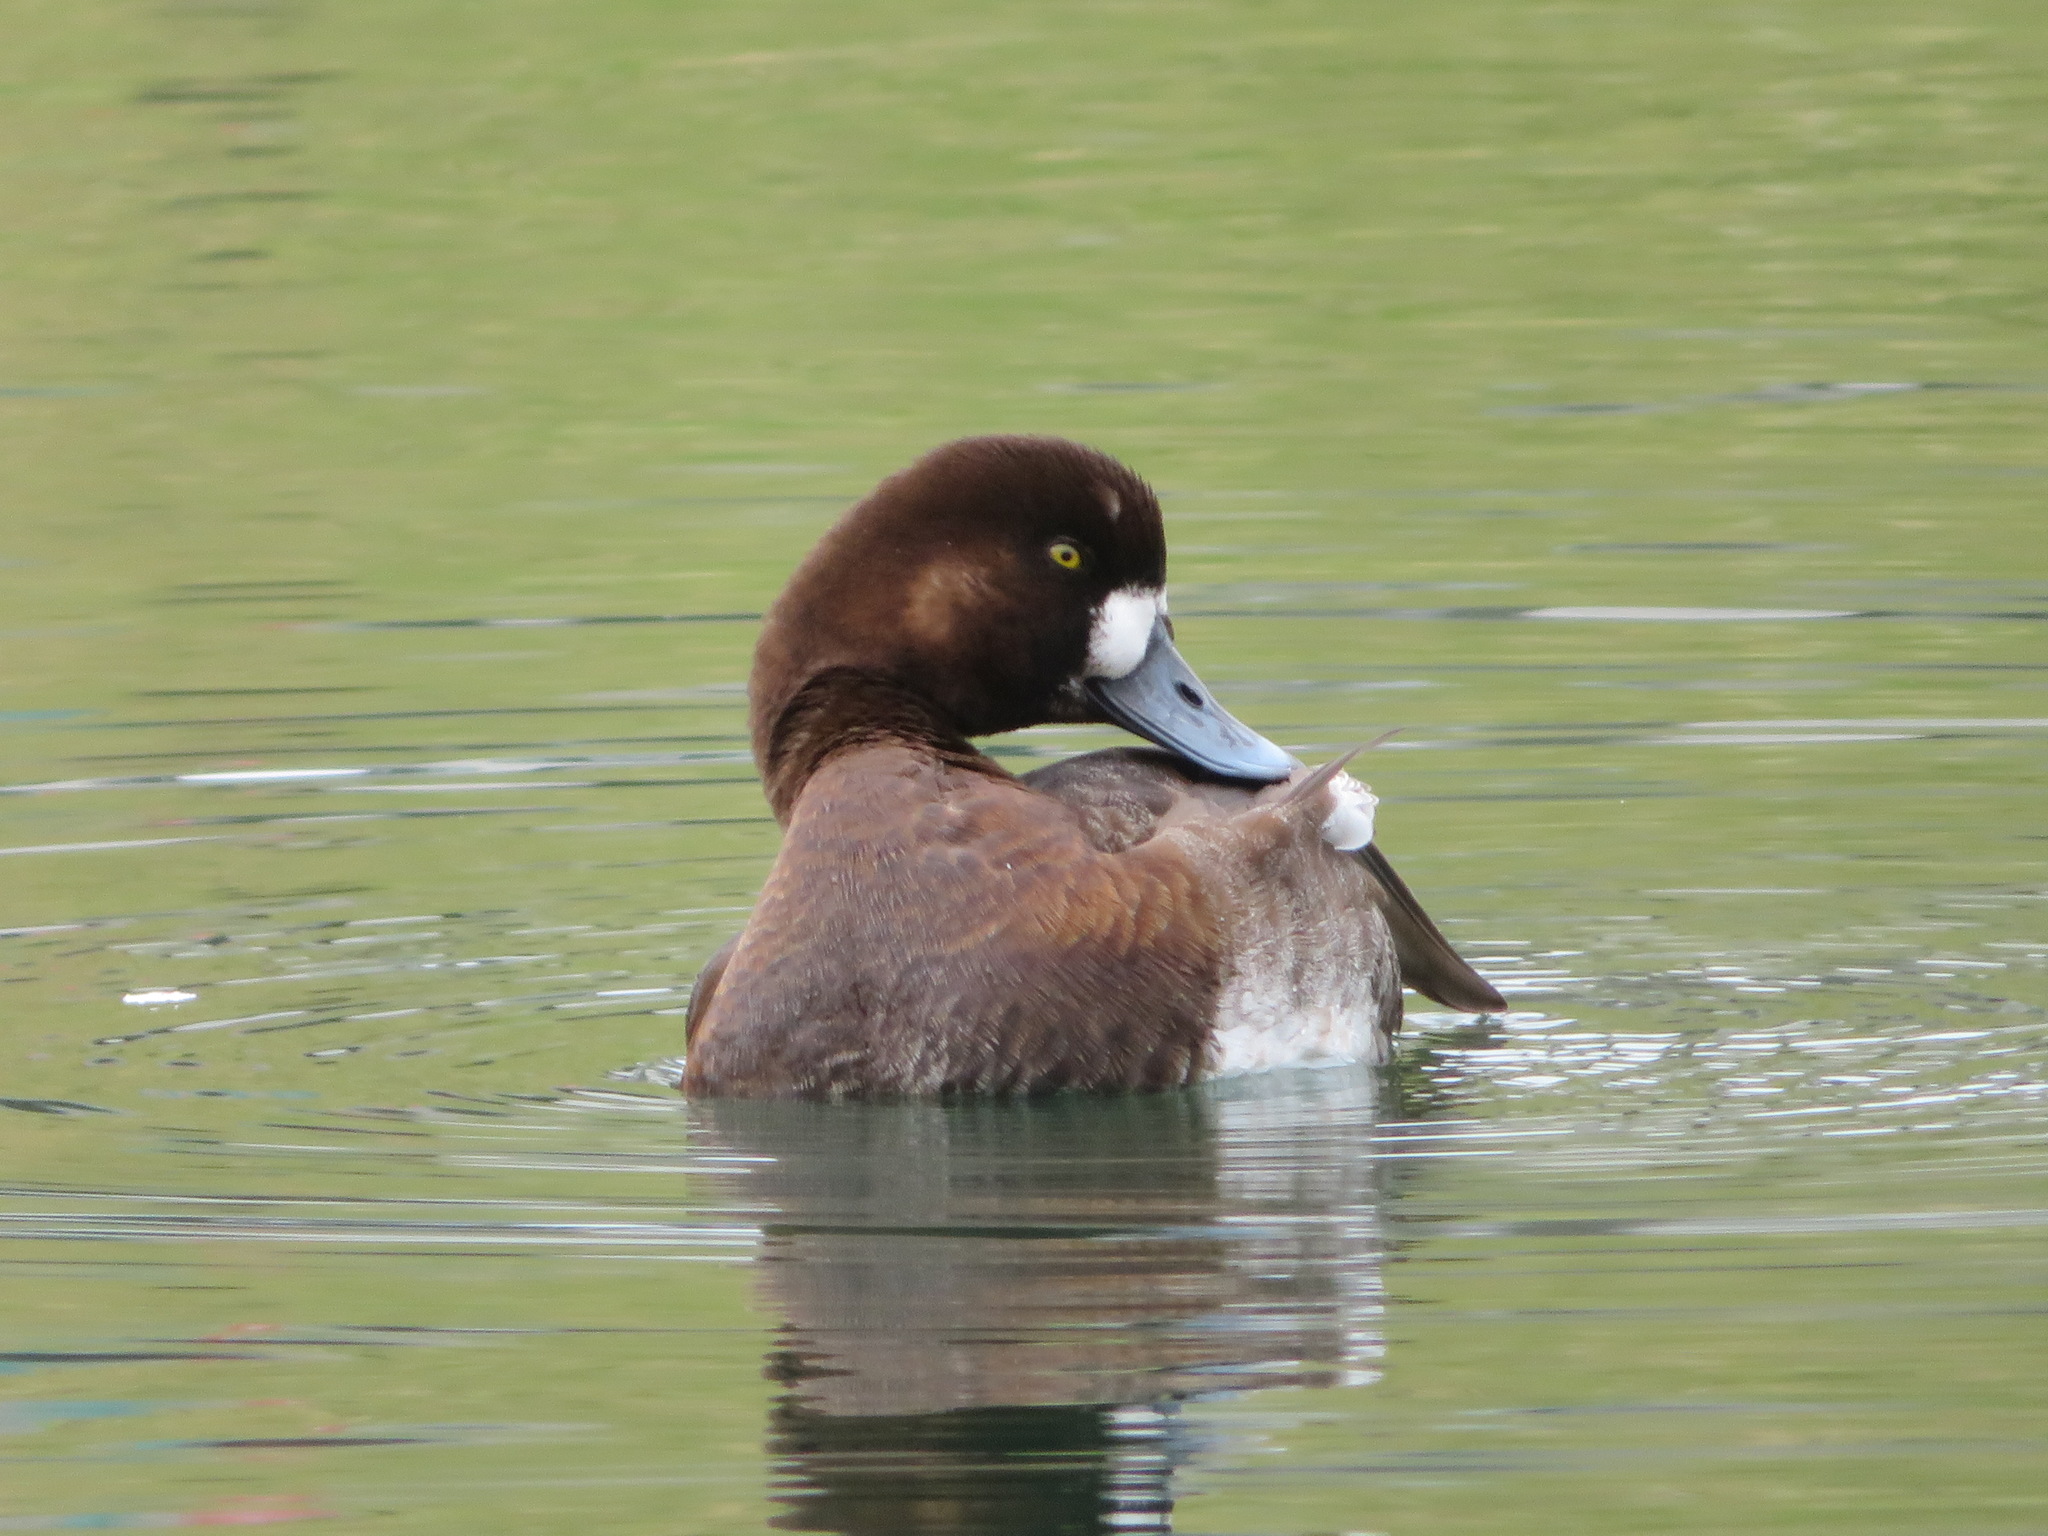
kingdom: Animalia
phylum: Chordata
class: Aves
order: Anseriformes
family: Anatidae
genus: Aythya
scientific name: Aythya marila
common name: Greater scaup
